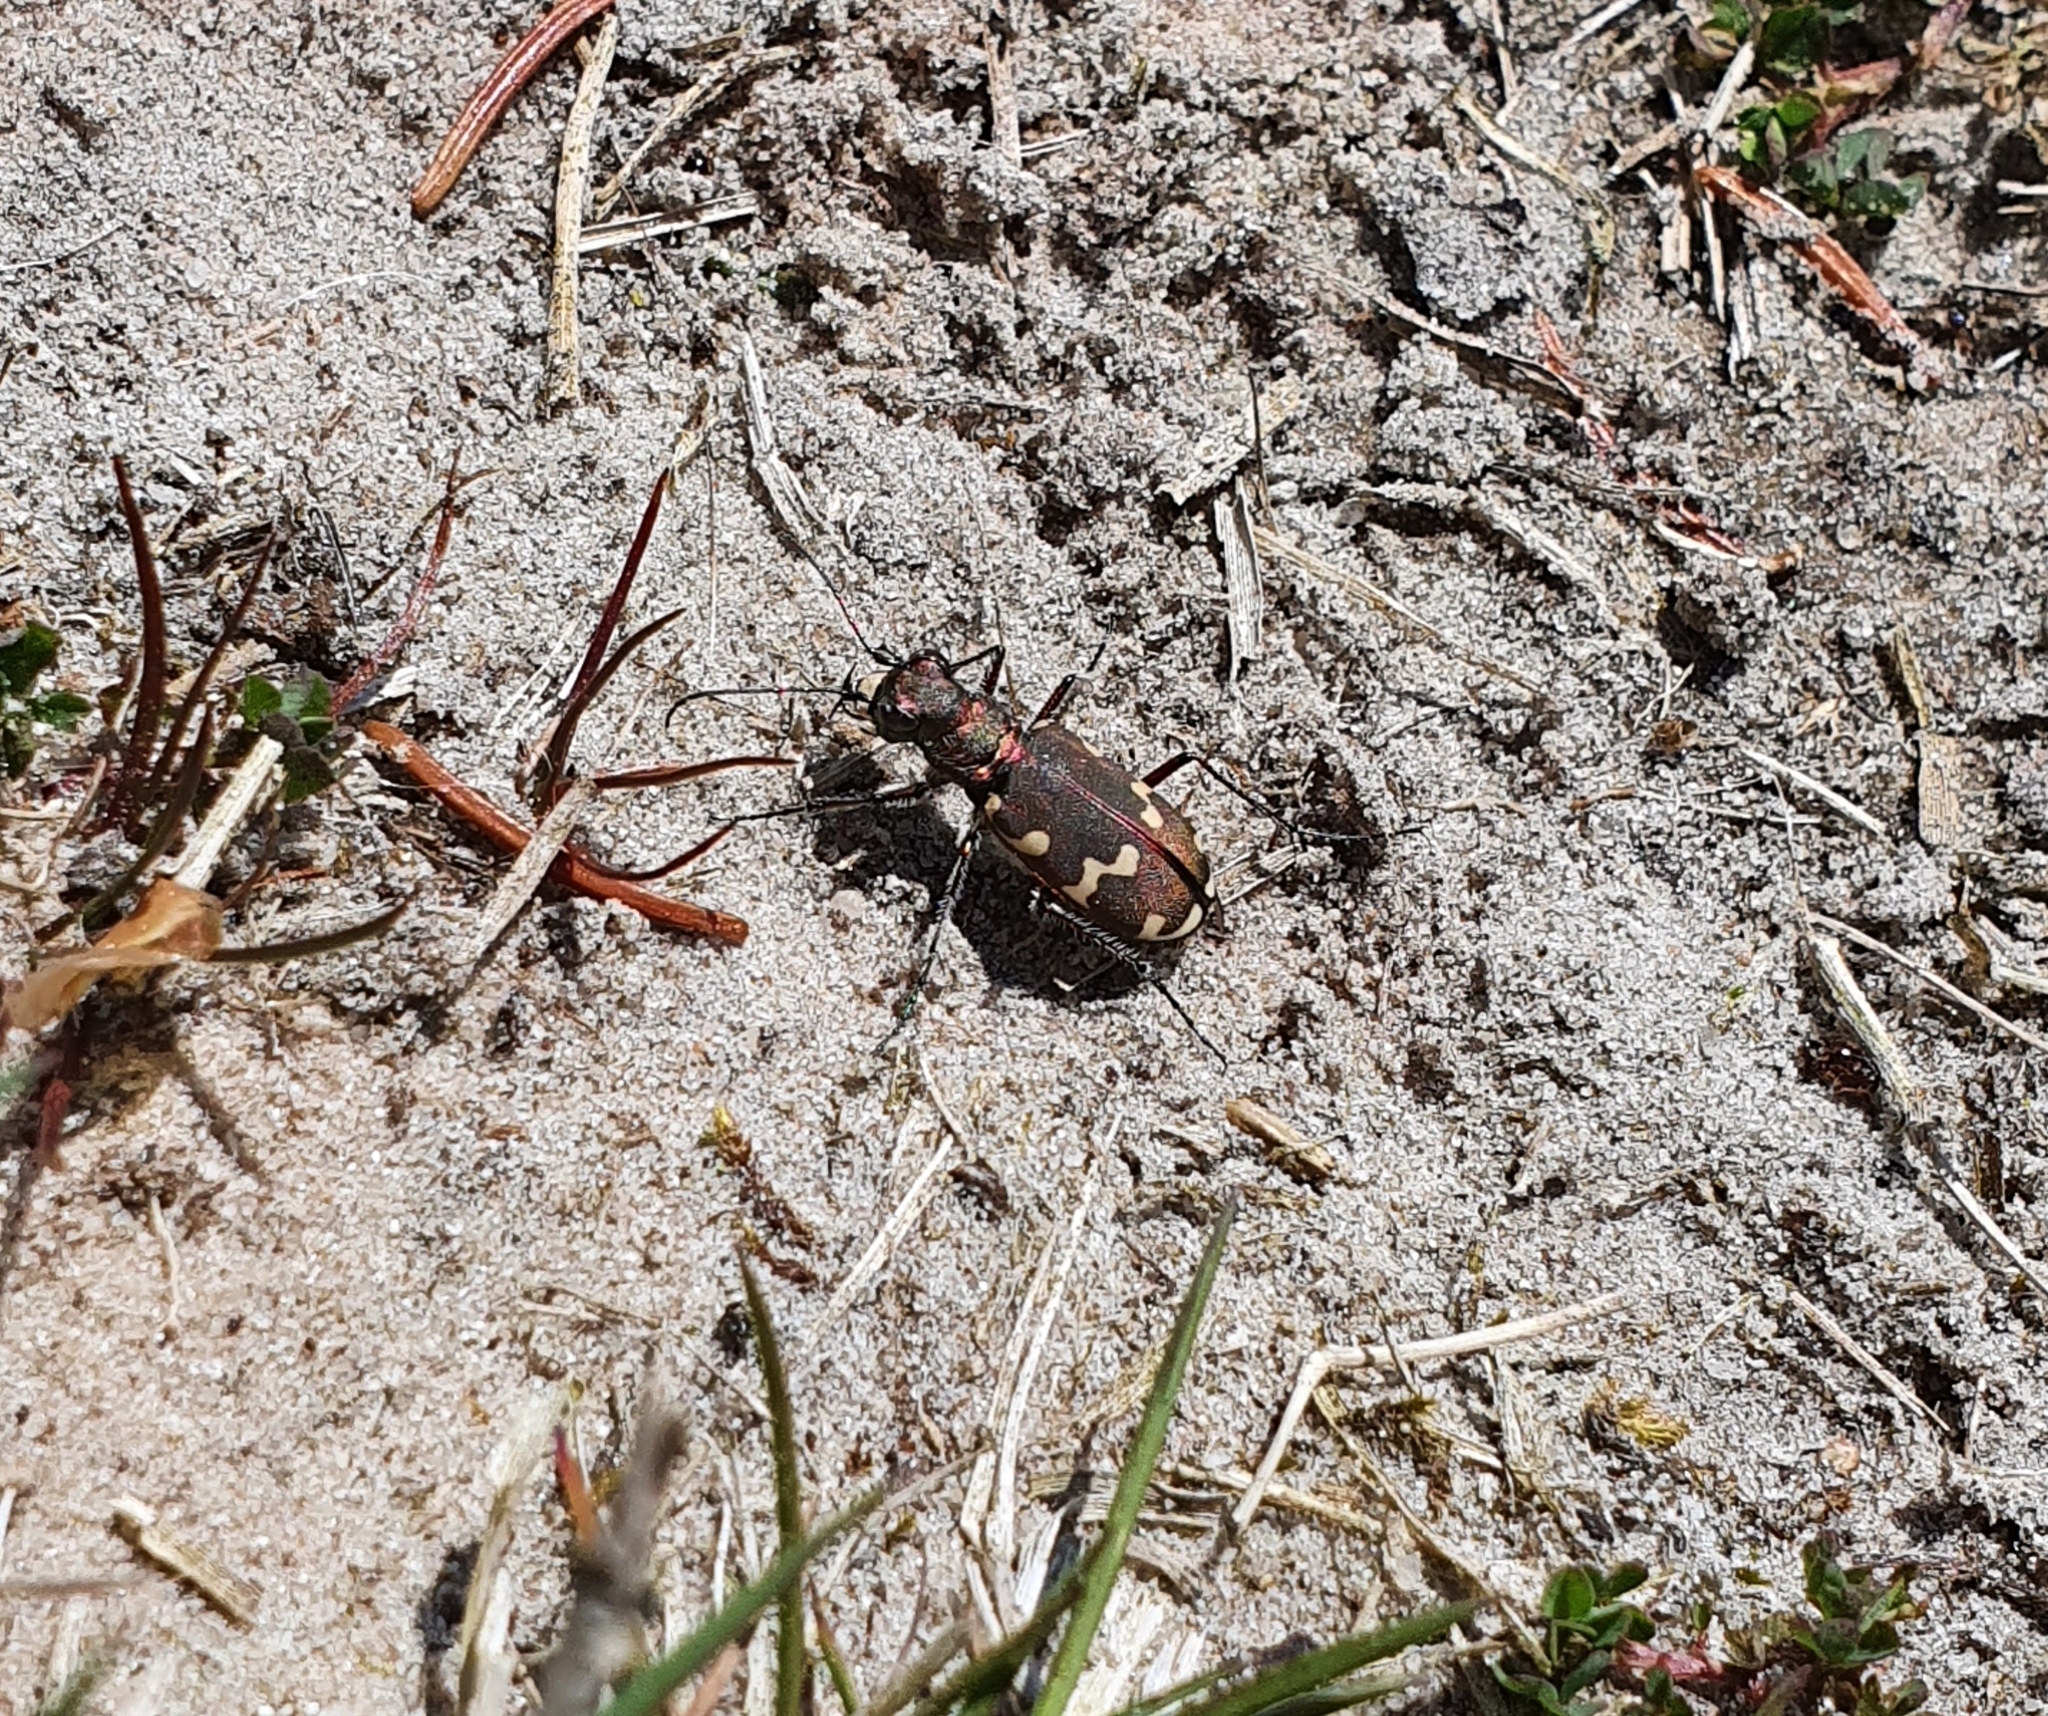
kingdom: Animalia
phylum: Arthropoda
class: Insecta
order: Coleoptera
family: Carabidae
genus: Cicindela
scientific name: Cicindela hybrida
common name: Northern dune tiger beetle
